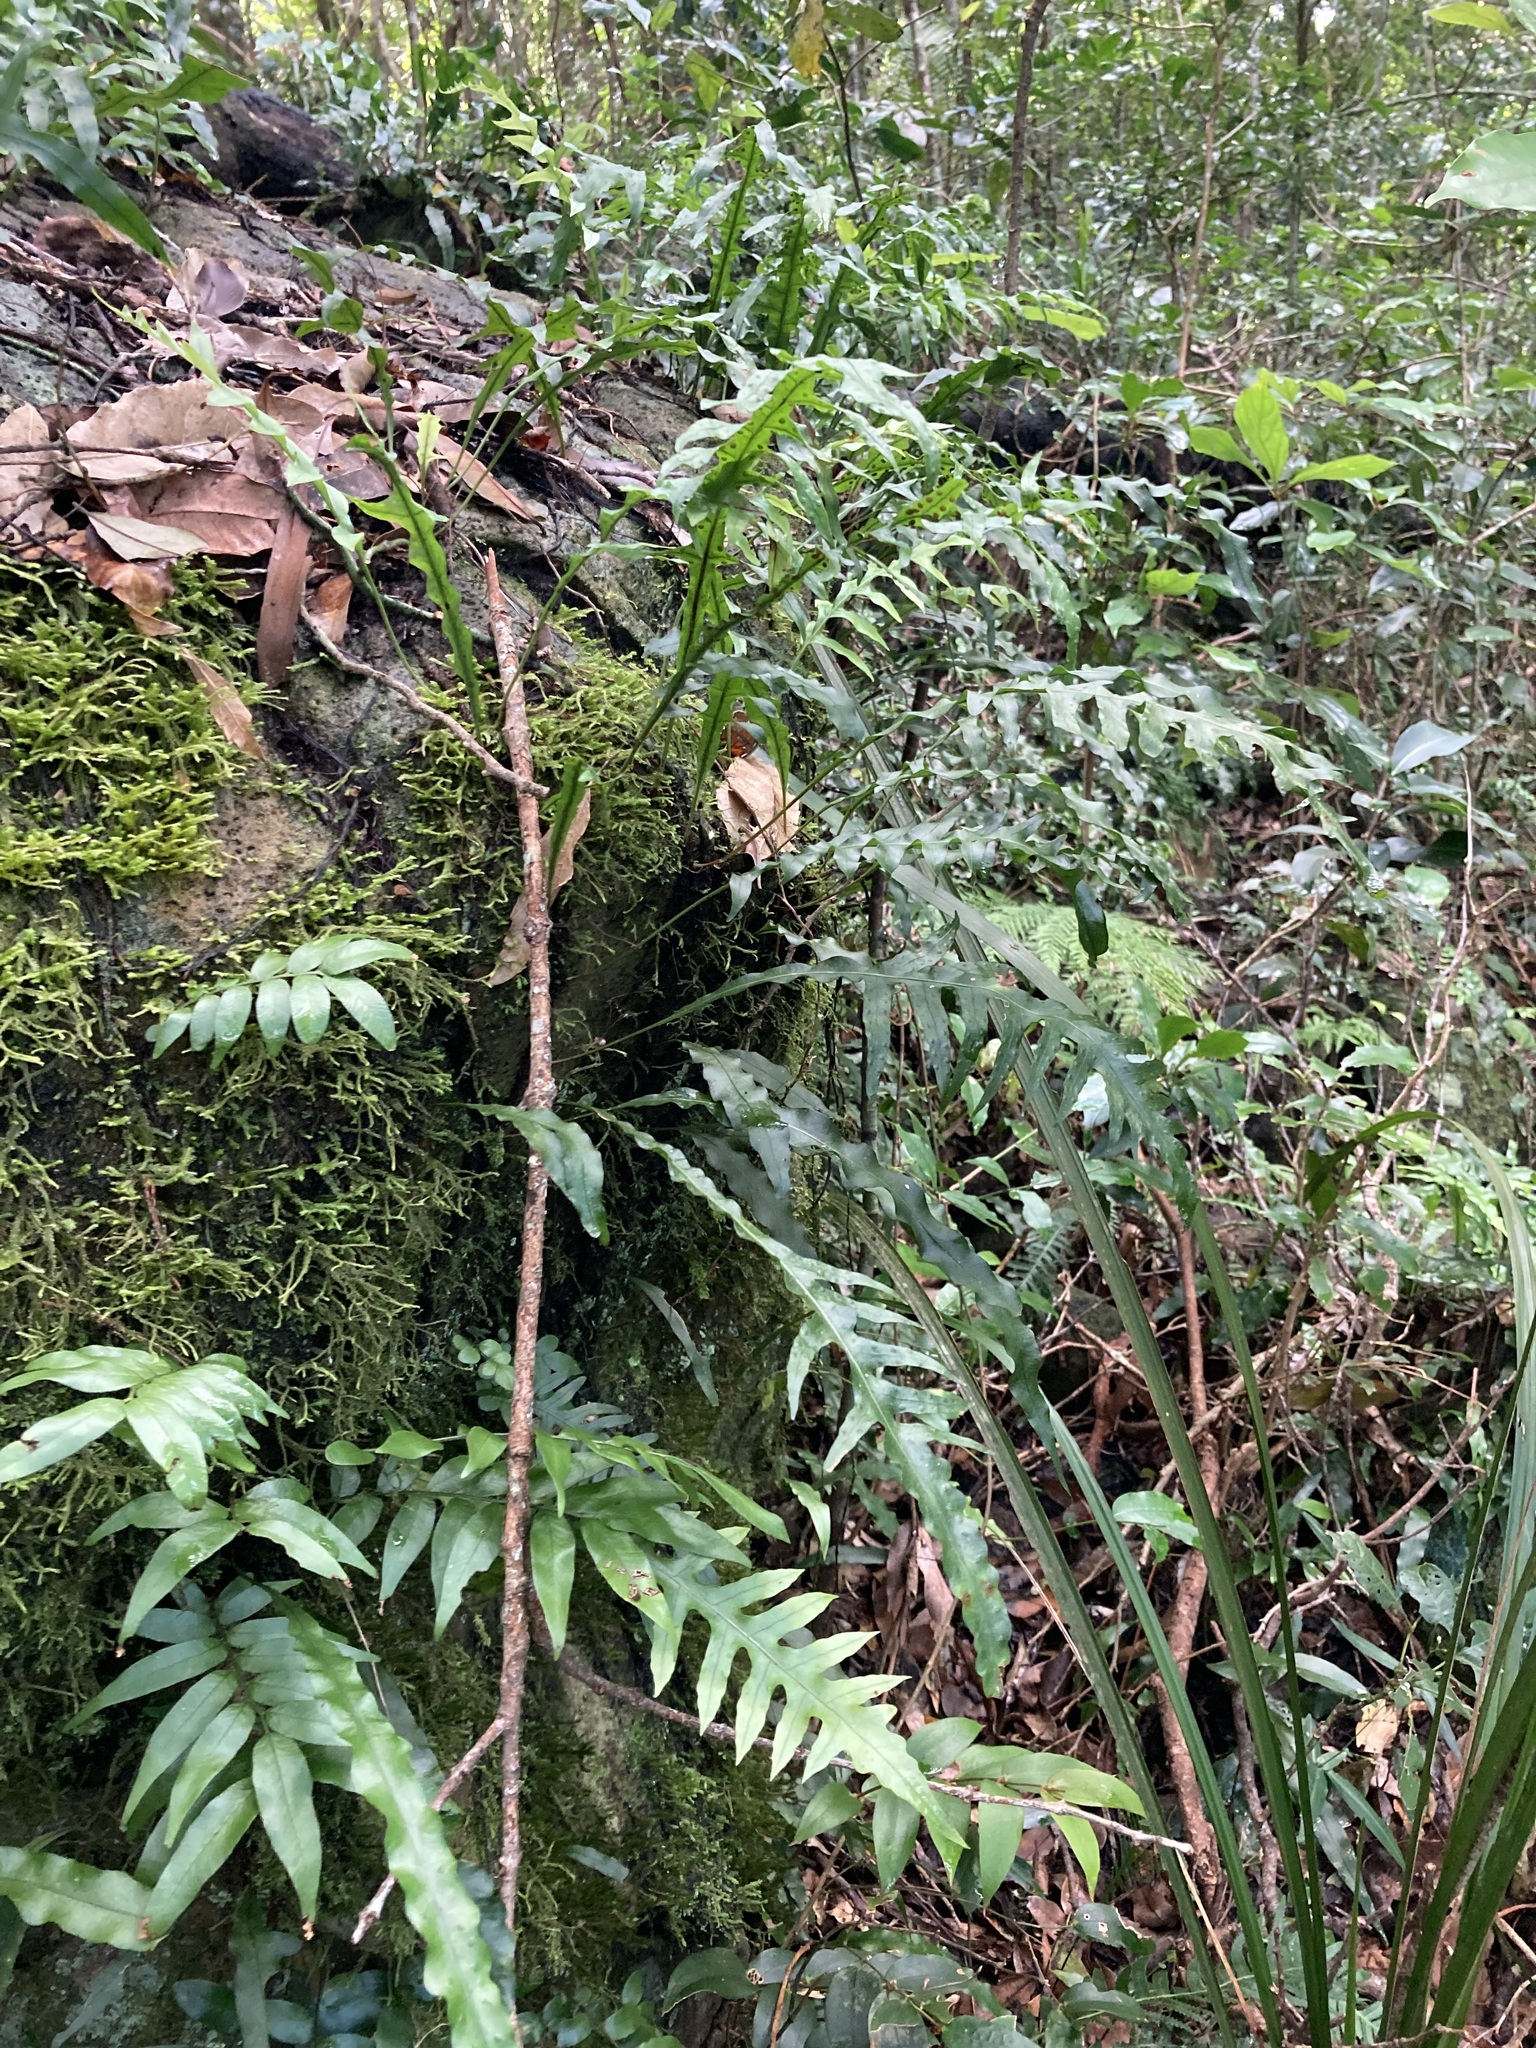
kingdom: Plantae
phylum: Tracheophyta
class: Polypodiopsida
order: Polypodiales
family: Polypodiaceae
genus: Lecanopteris
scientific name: Lecanopteris scandens
